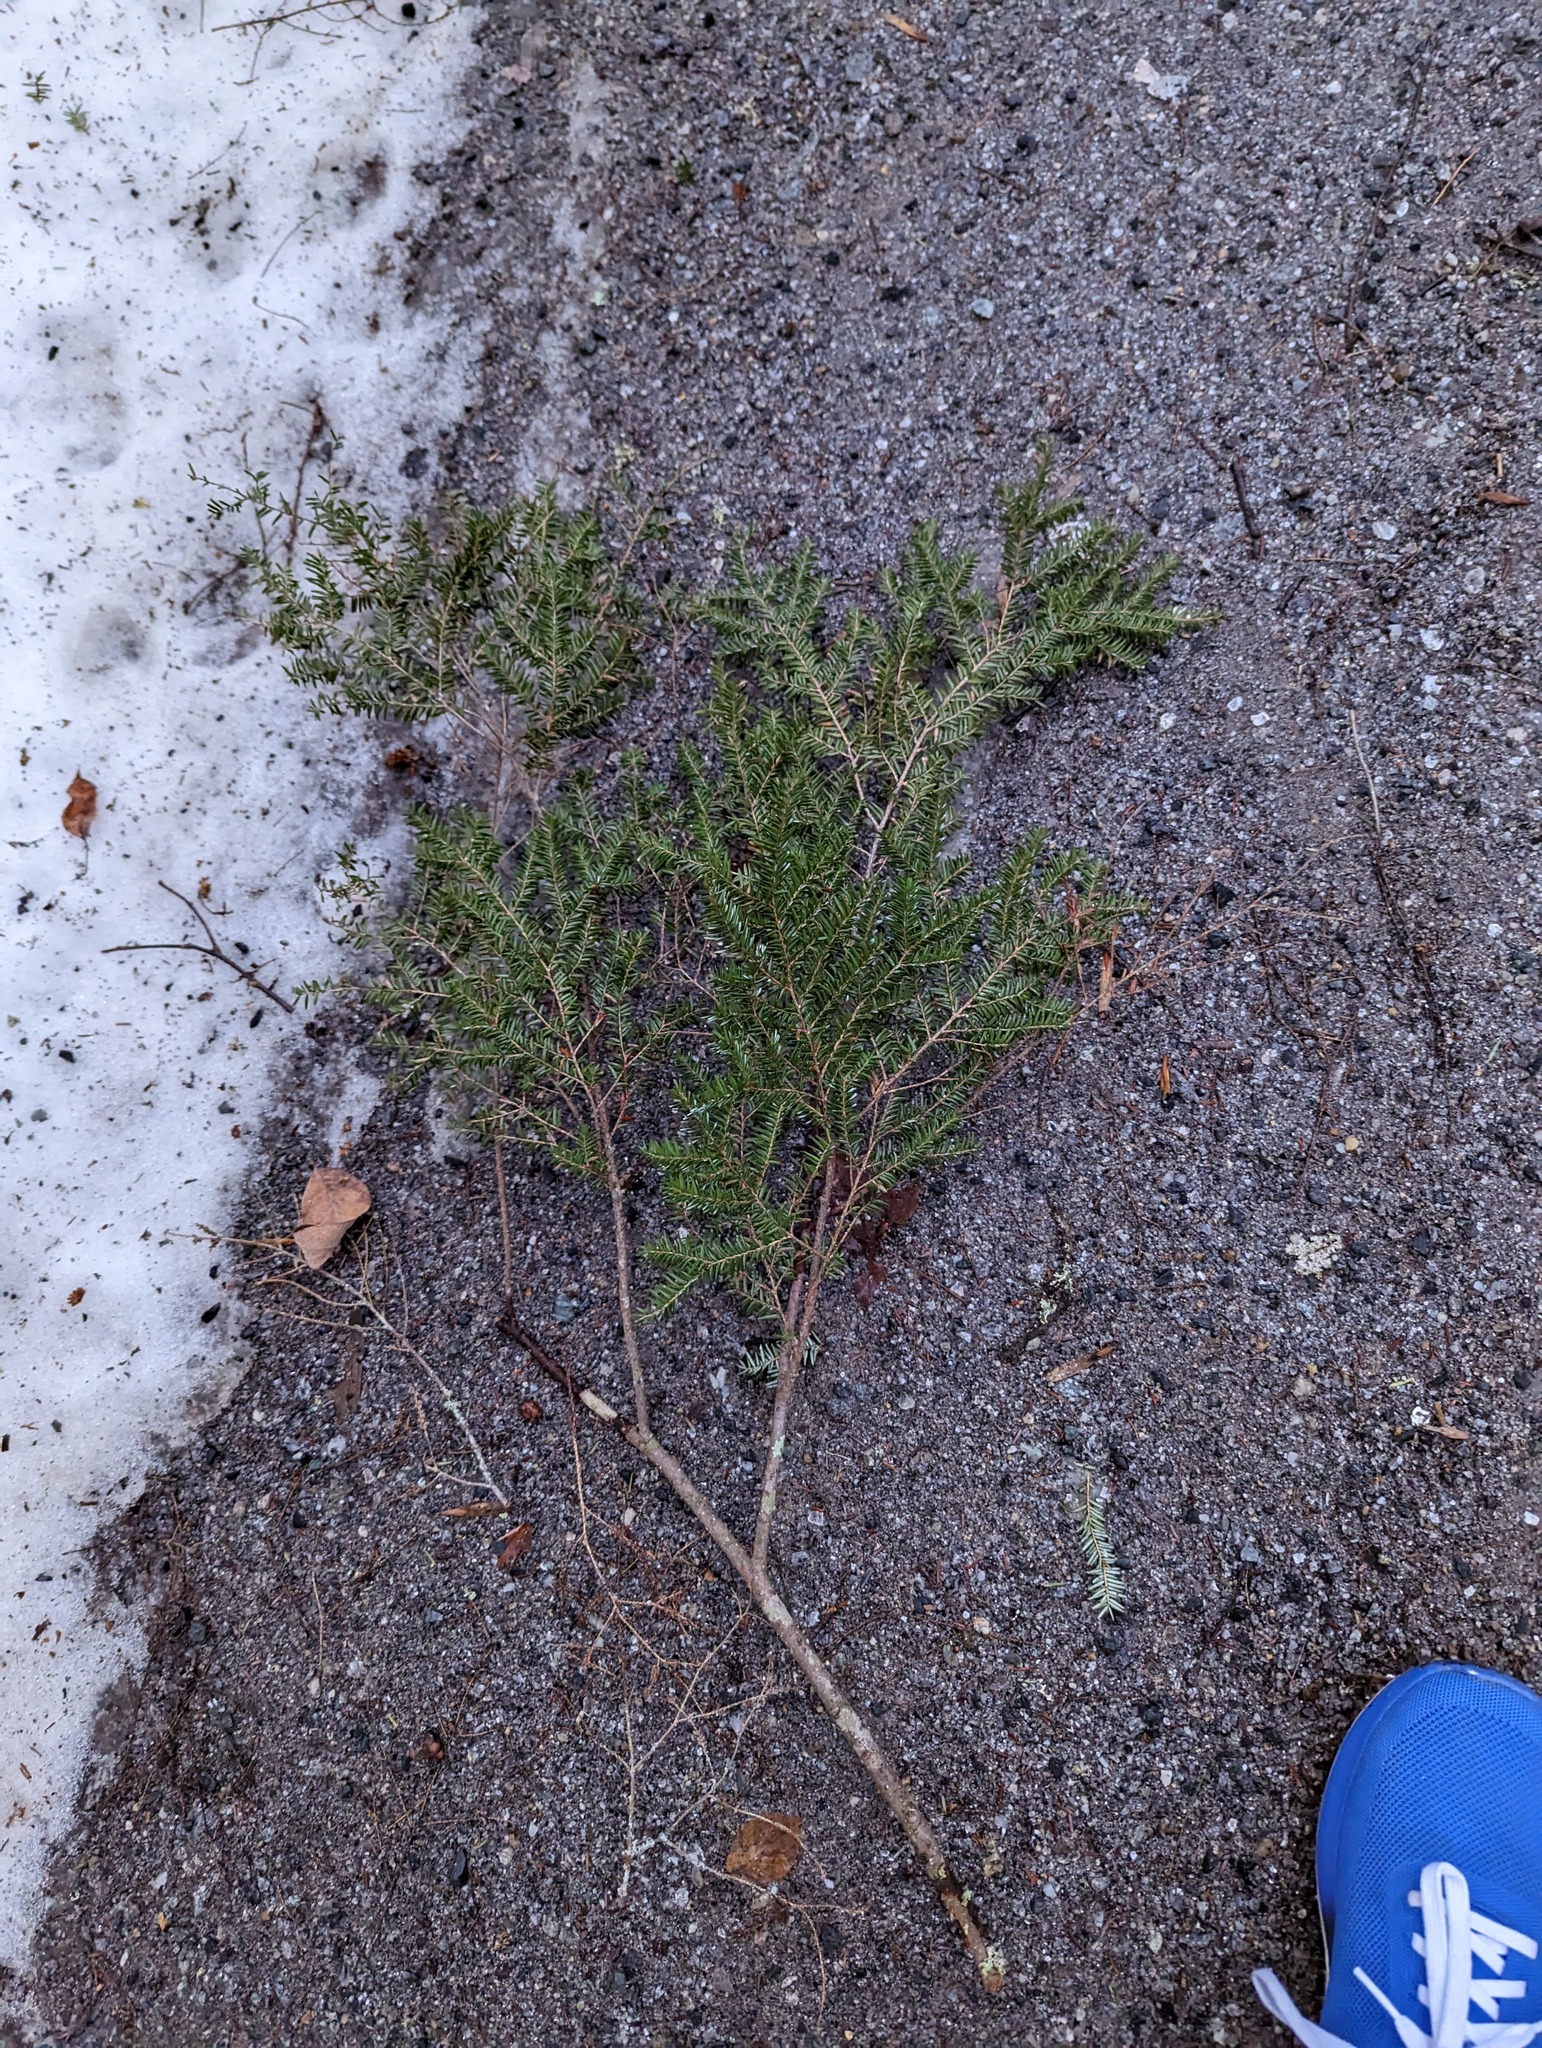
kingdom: Plantae
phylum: Tracheophyta
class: Pinopsida
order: Pinales
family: Pinaceae
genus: Tsuga
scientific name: Tsuga canadensis
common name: Eastern hemlock
